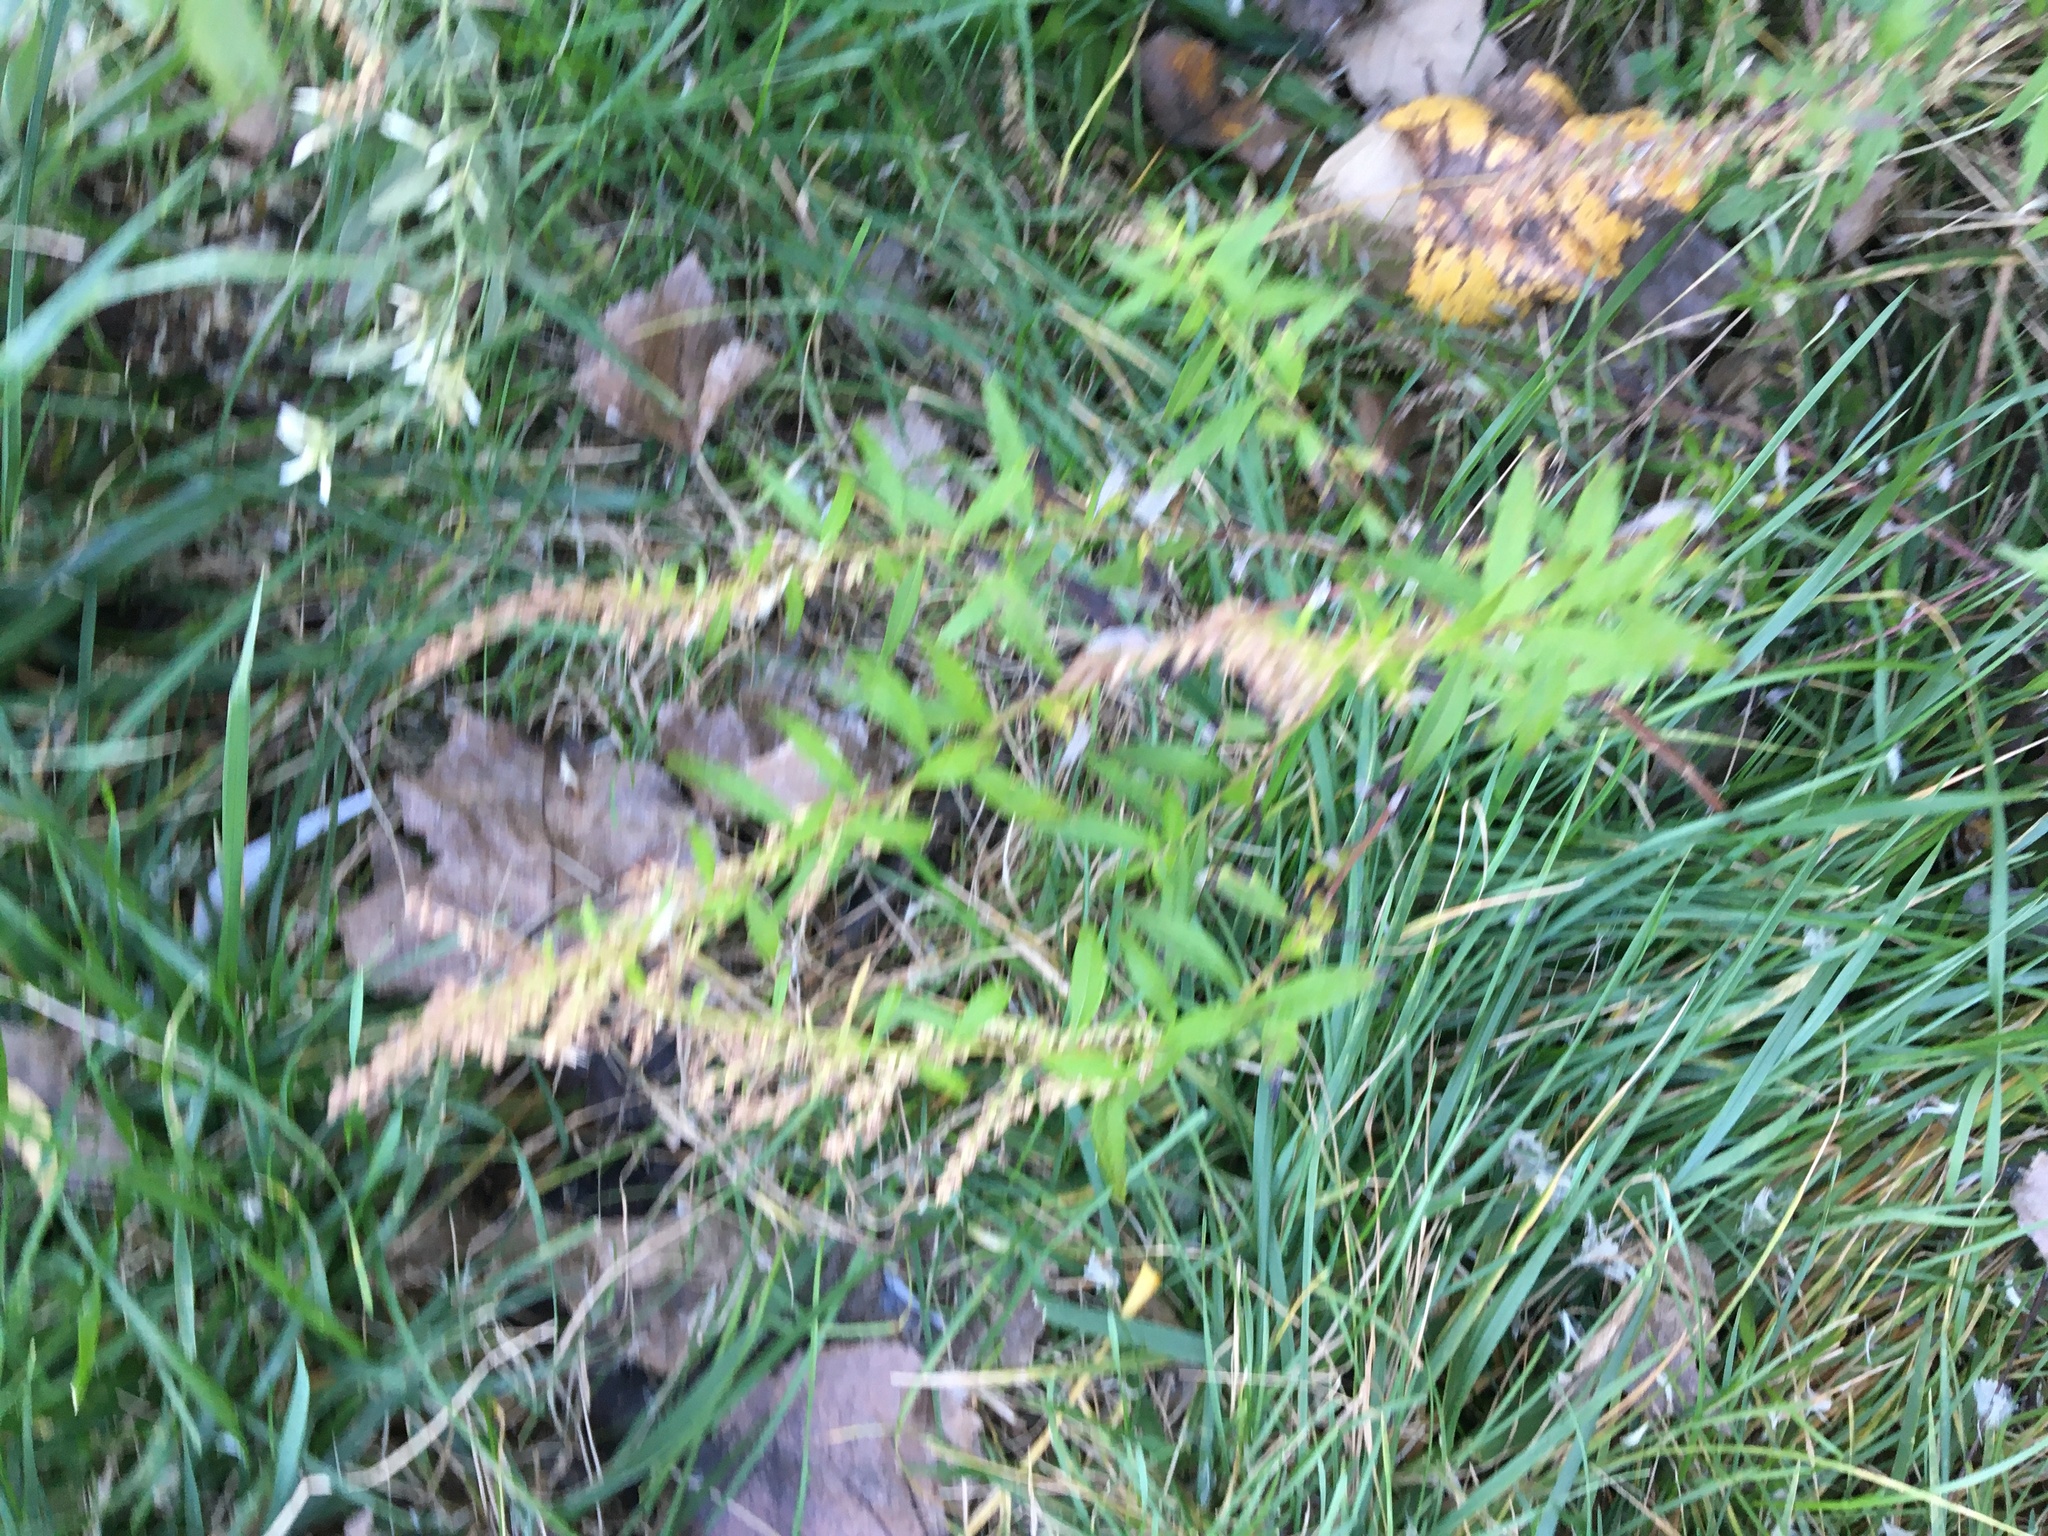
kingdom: Plantae
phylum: Tracheophyta
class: Magnoliopsida
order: Asterales
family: Asteraceae
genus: Artemisia
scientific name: Artemisia vulgaris
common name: Mugwort
